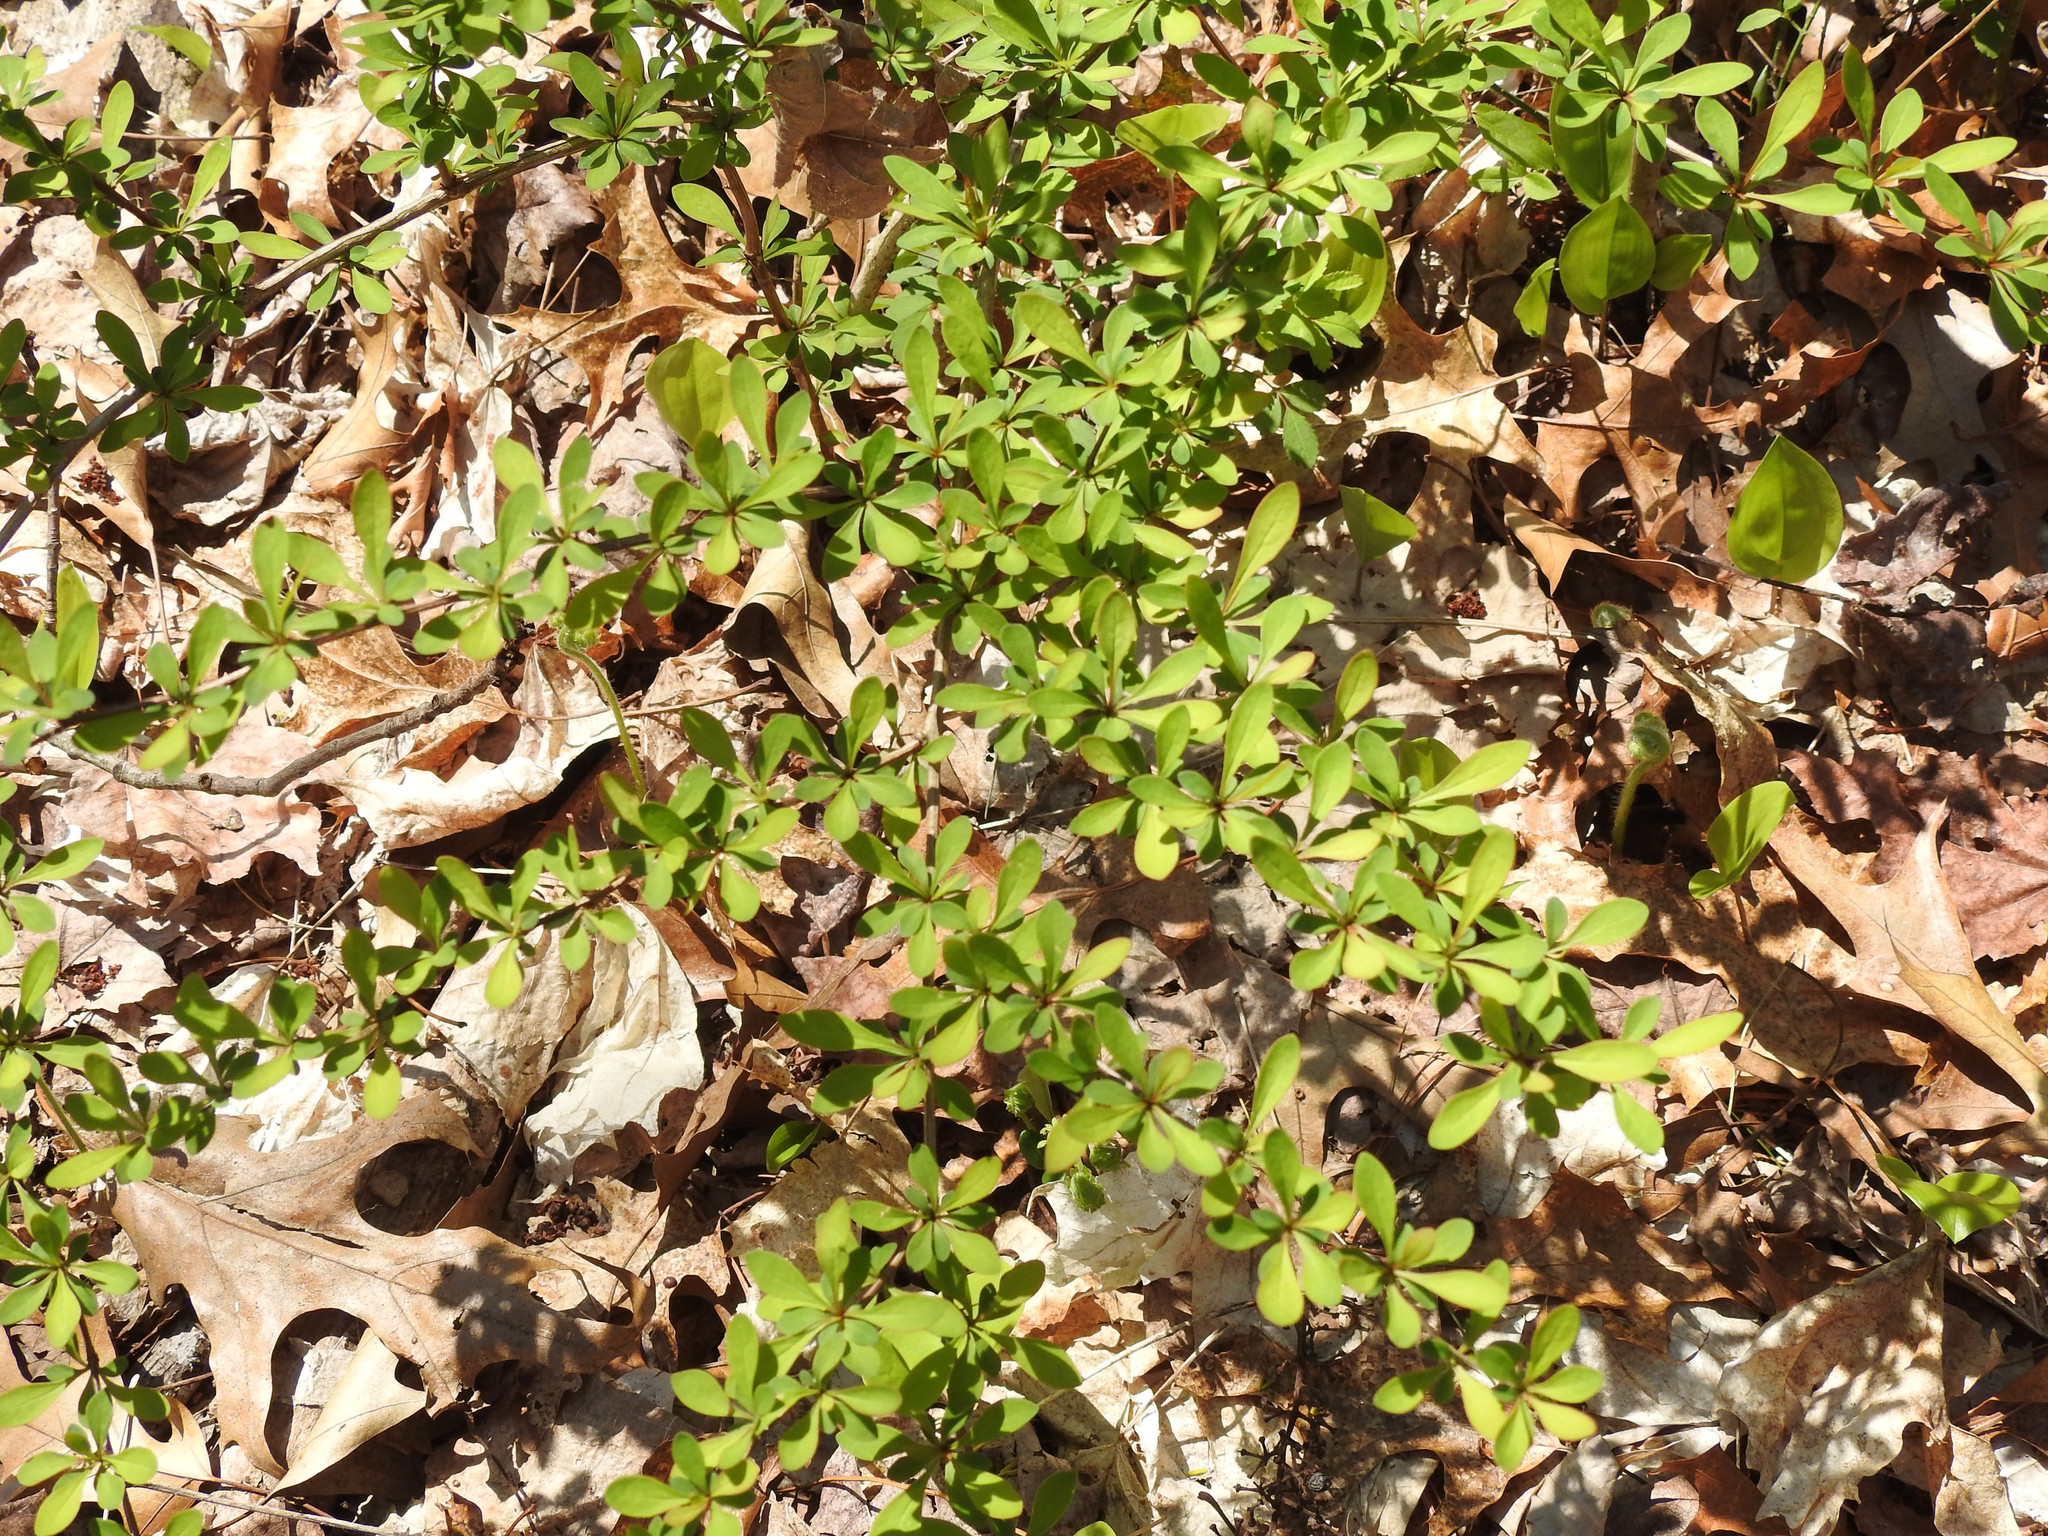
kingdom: Plantae
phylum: Tracheophyta
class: Magnoliopsida
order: Ranunculales
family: Berberidaceae
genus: Berberis
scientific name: Berberis thunbergii
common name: Japanese barberry
